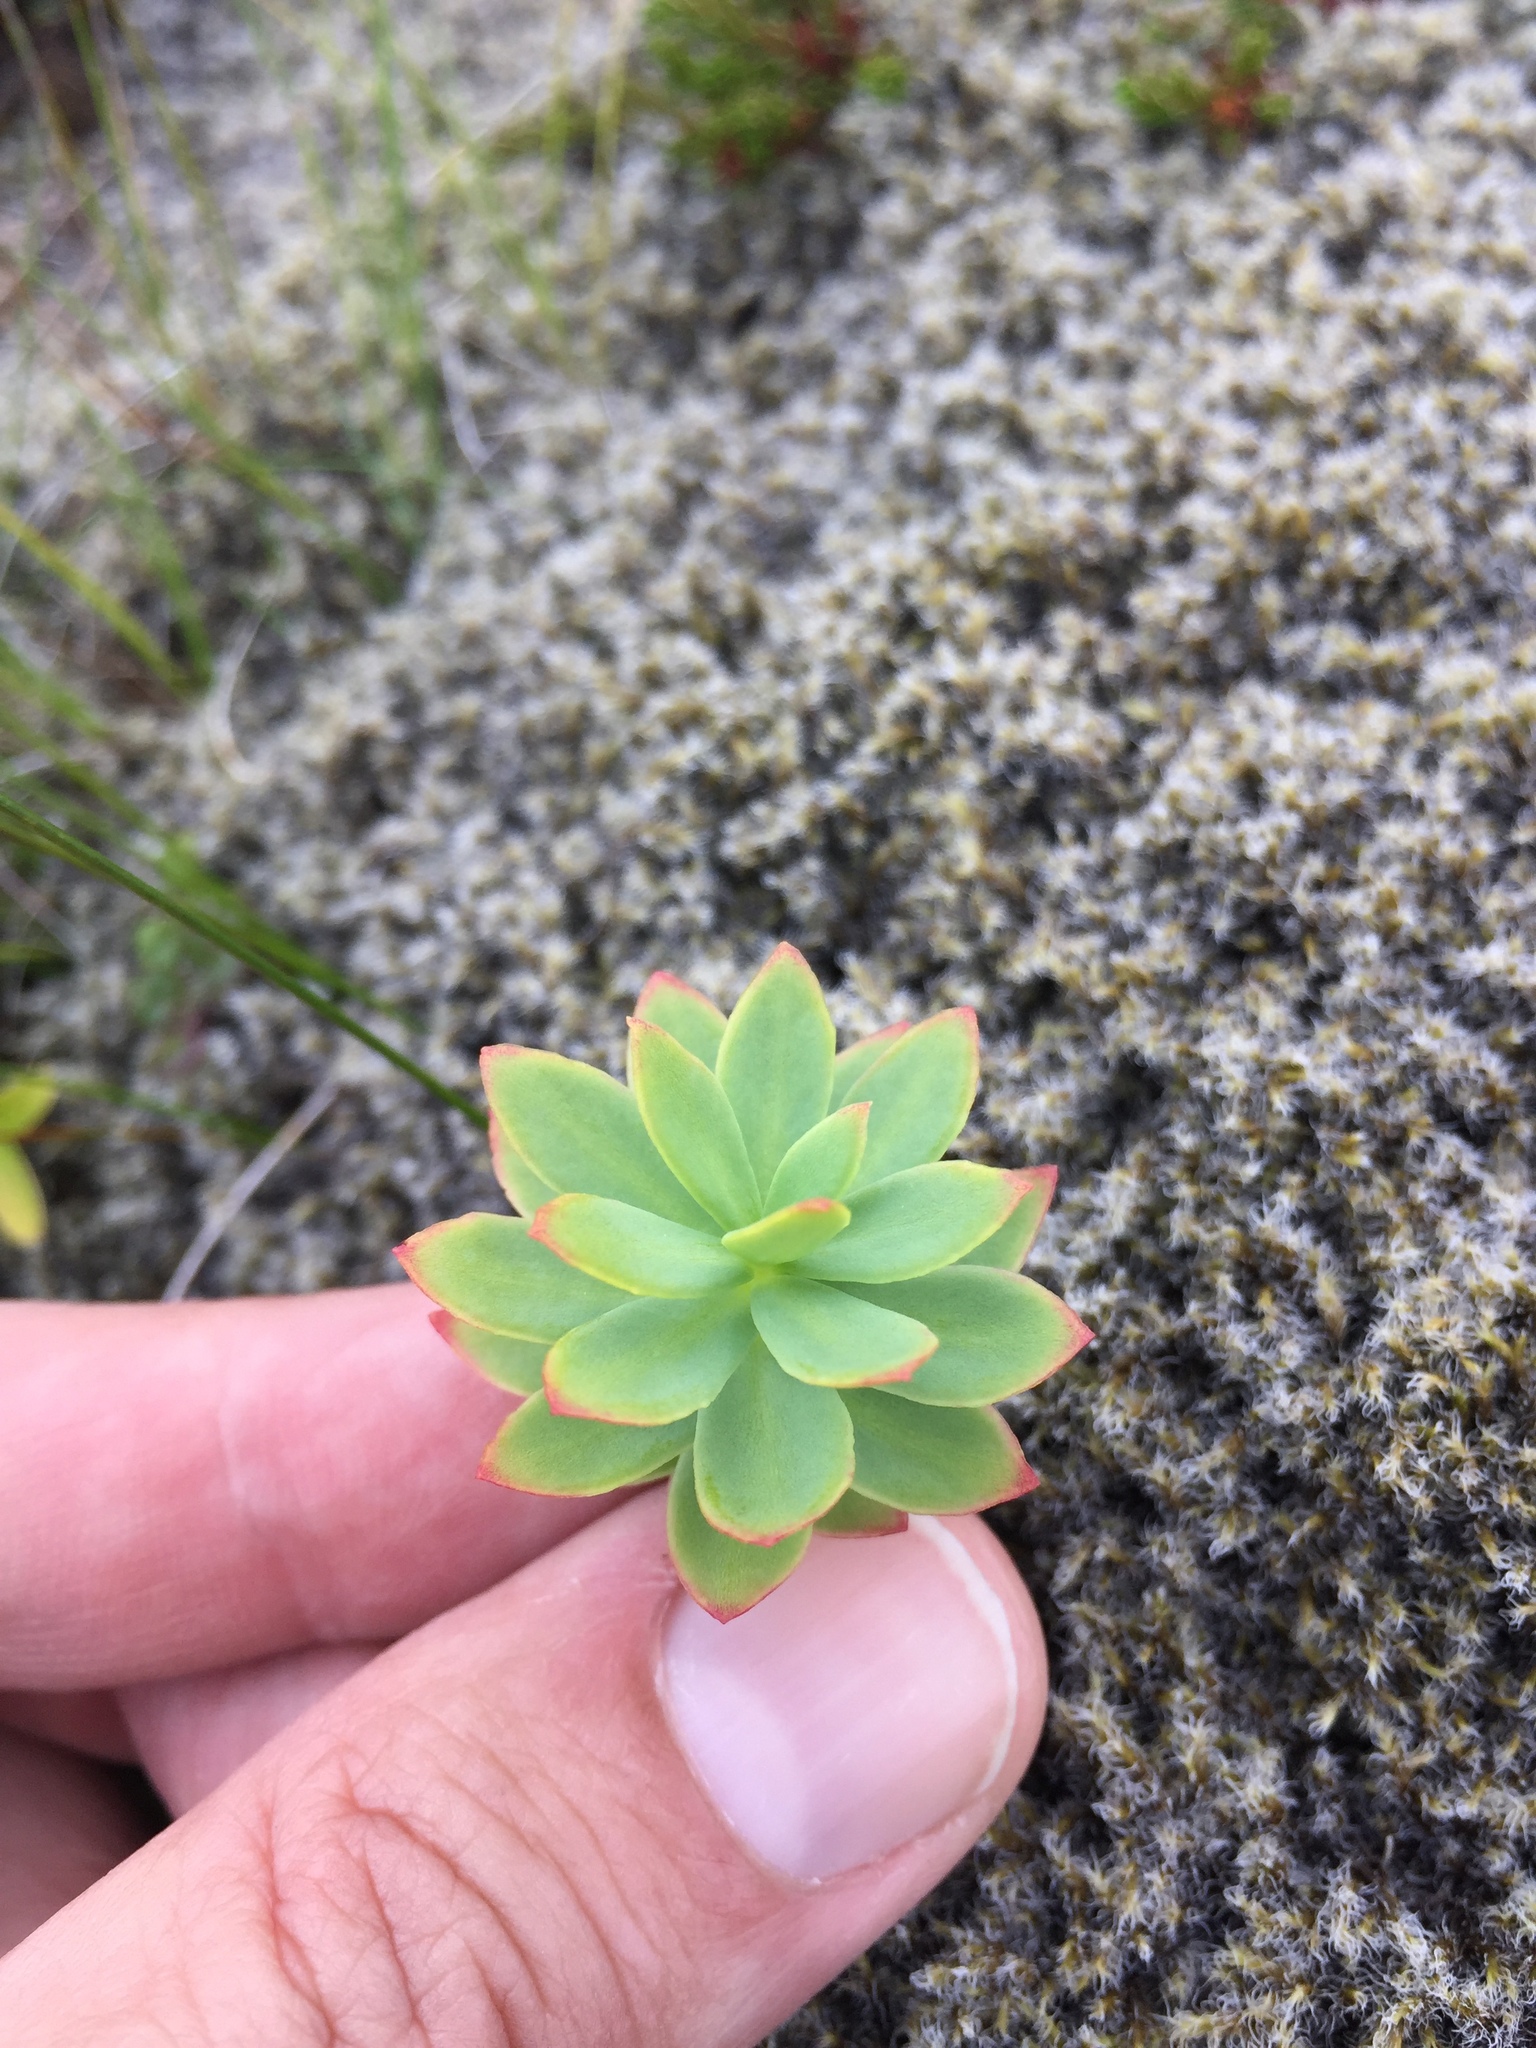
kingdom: Plantae
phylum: Tracheophyta
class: Magnoliopsida
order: Saxifragales
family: Crassulaceae
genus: Rhodiola
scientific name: Rhodiola rosea
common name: Roseroot
